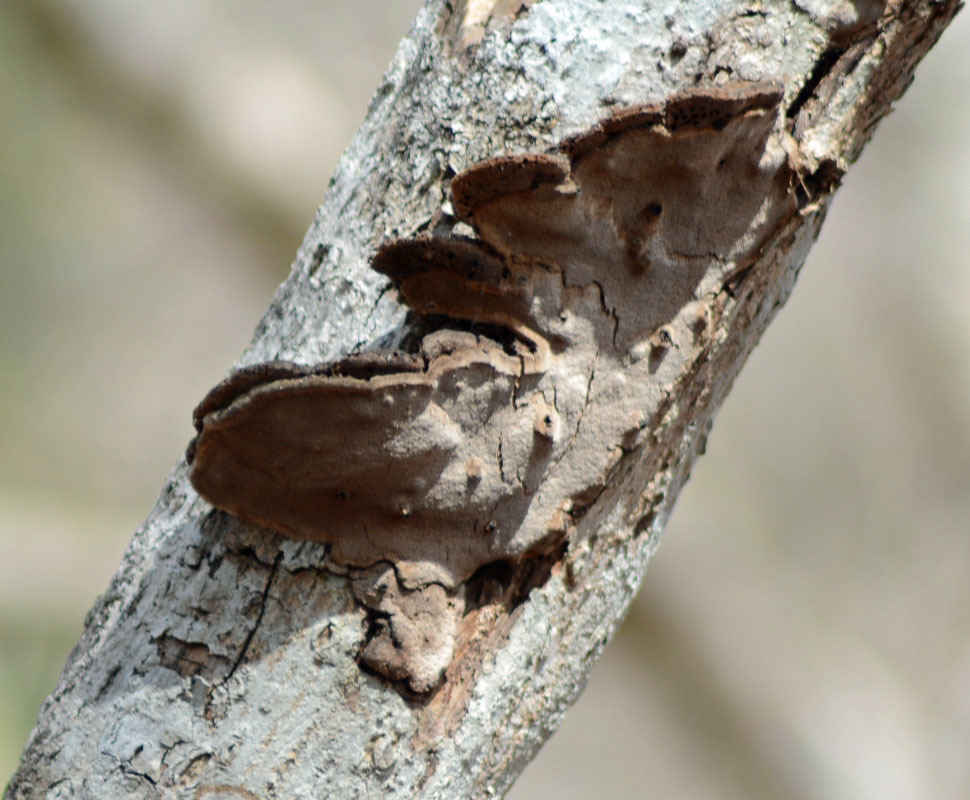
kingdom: Fungi
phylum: Basidiomycota
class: Agaricomycetes
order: Hymenochaetales
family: Hymenochaetaceae
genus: Phellinus
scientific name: Phellinus
